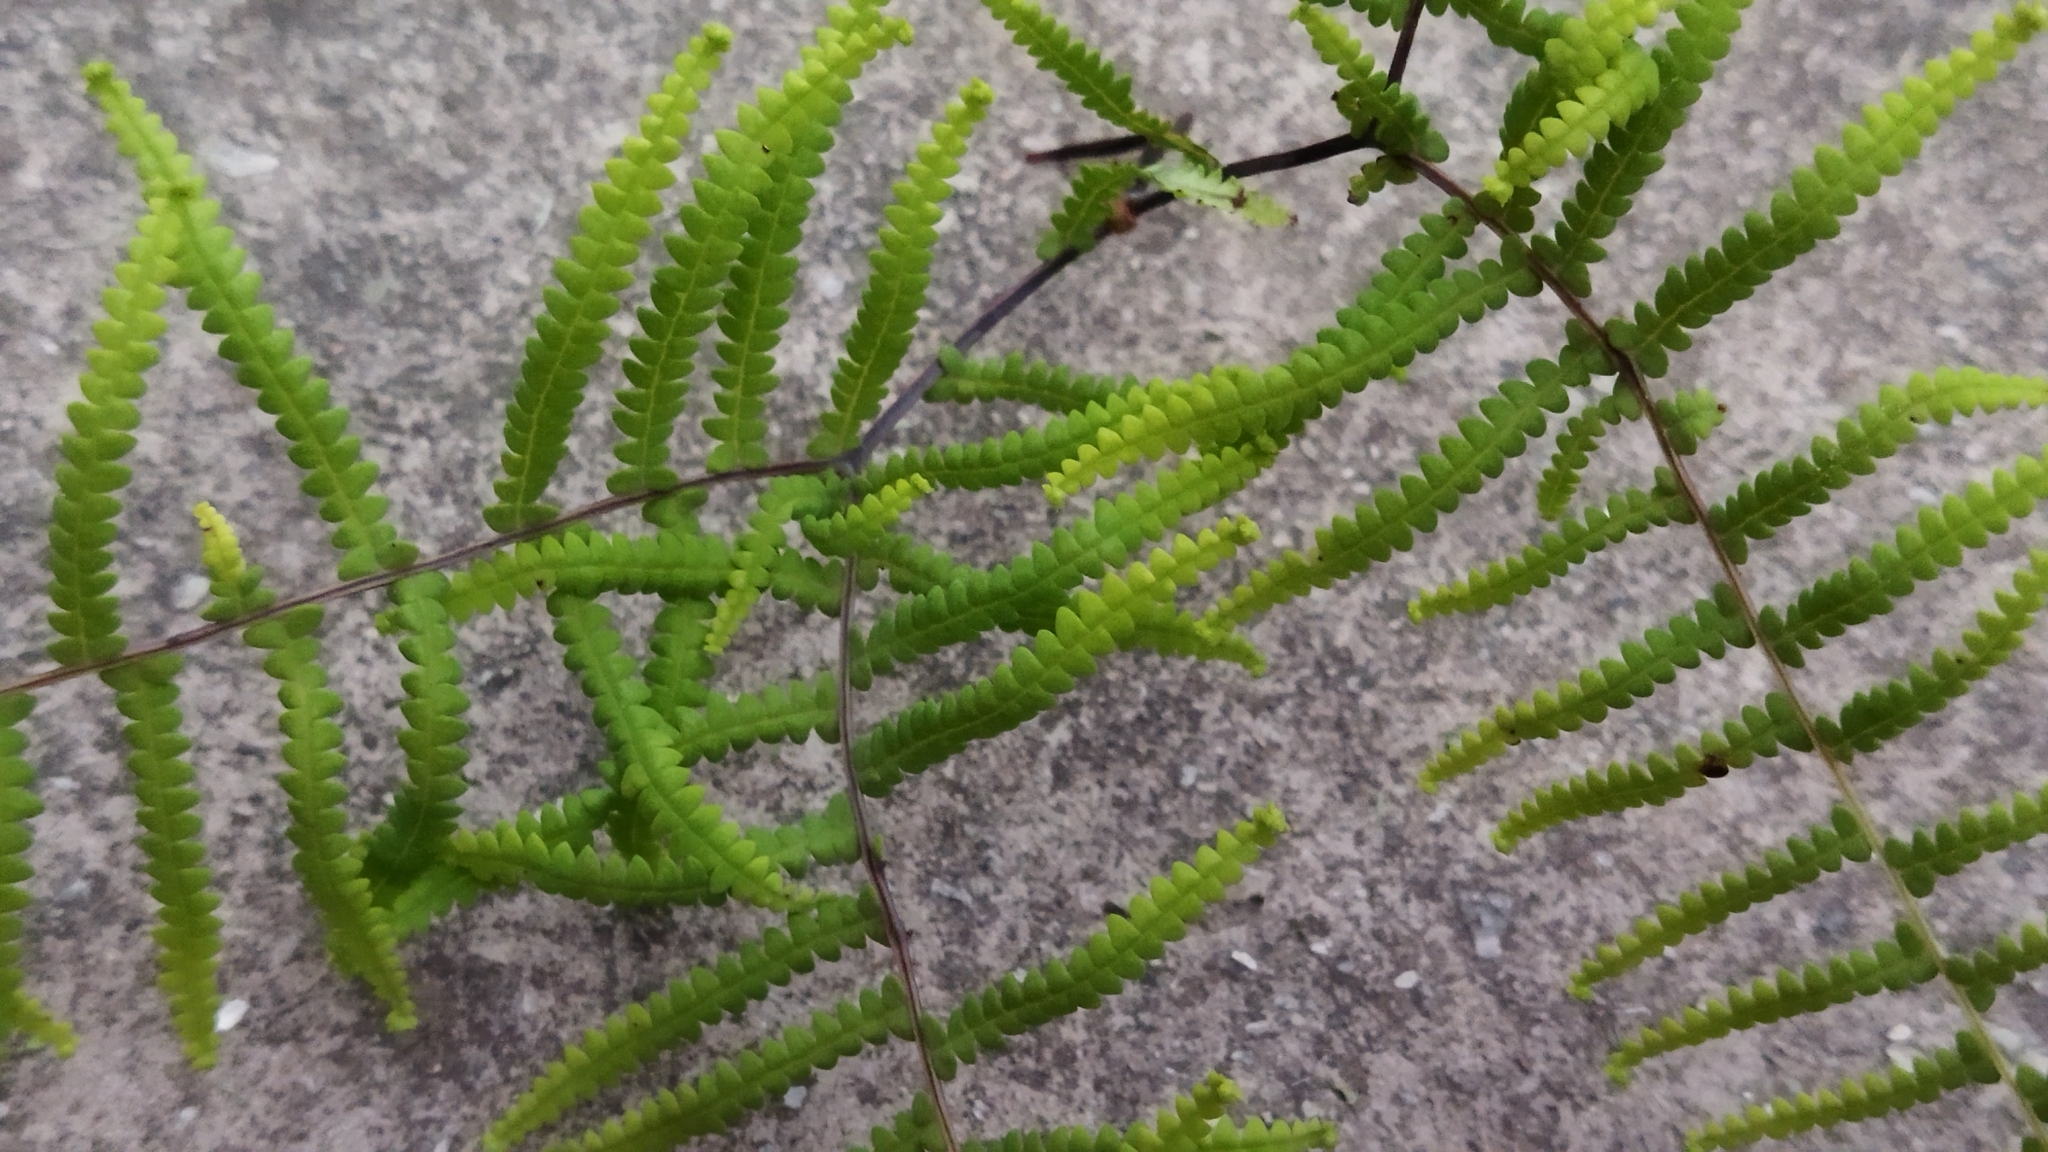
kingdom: Plantae
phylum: Tracheophyta
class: Polypodiopsida
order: Gleicheniales
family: Gleicheniaceae
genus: Gleichenia
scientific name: Gleichenia polypodioides
